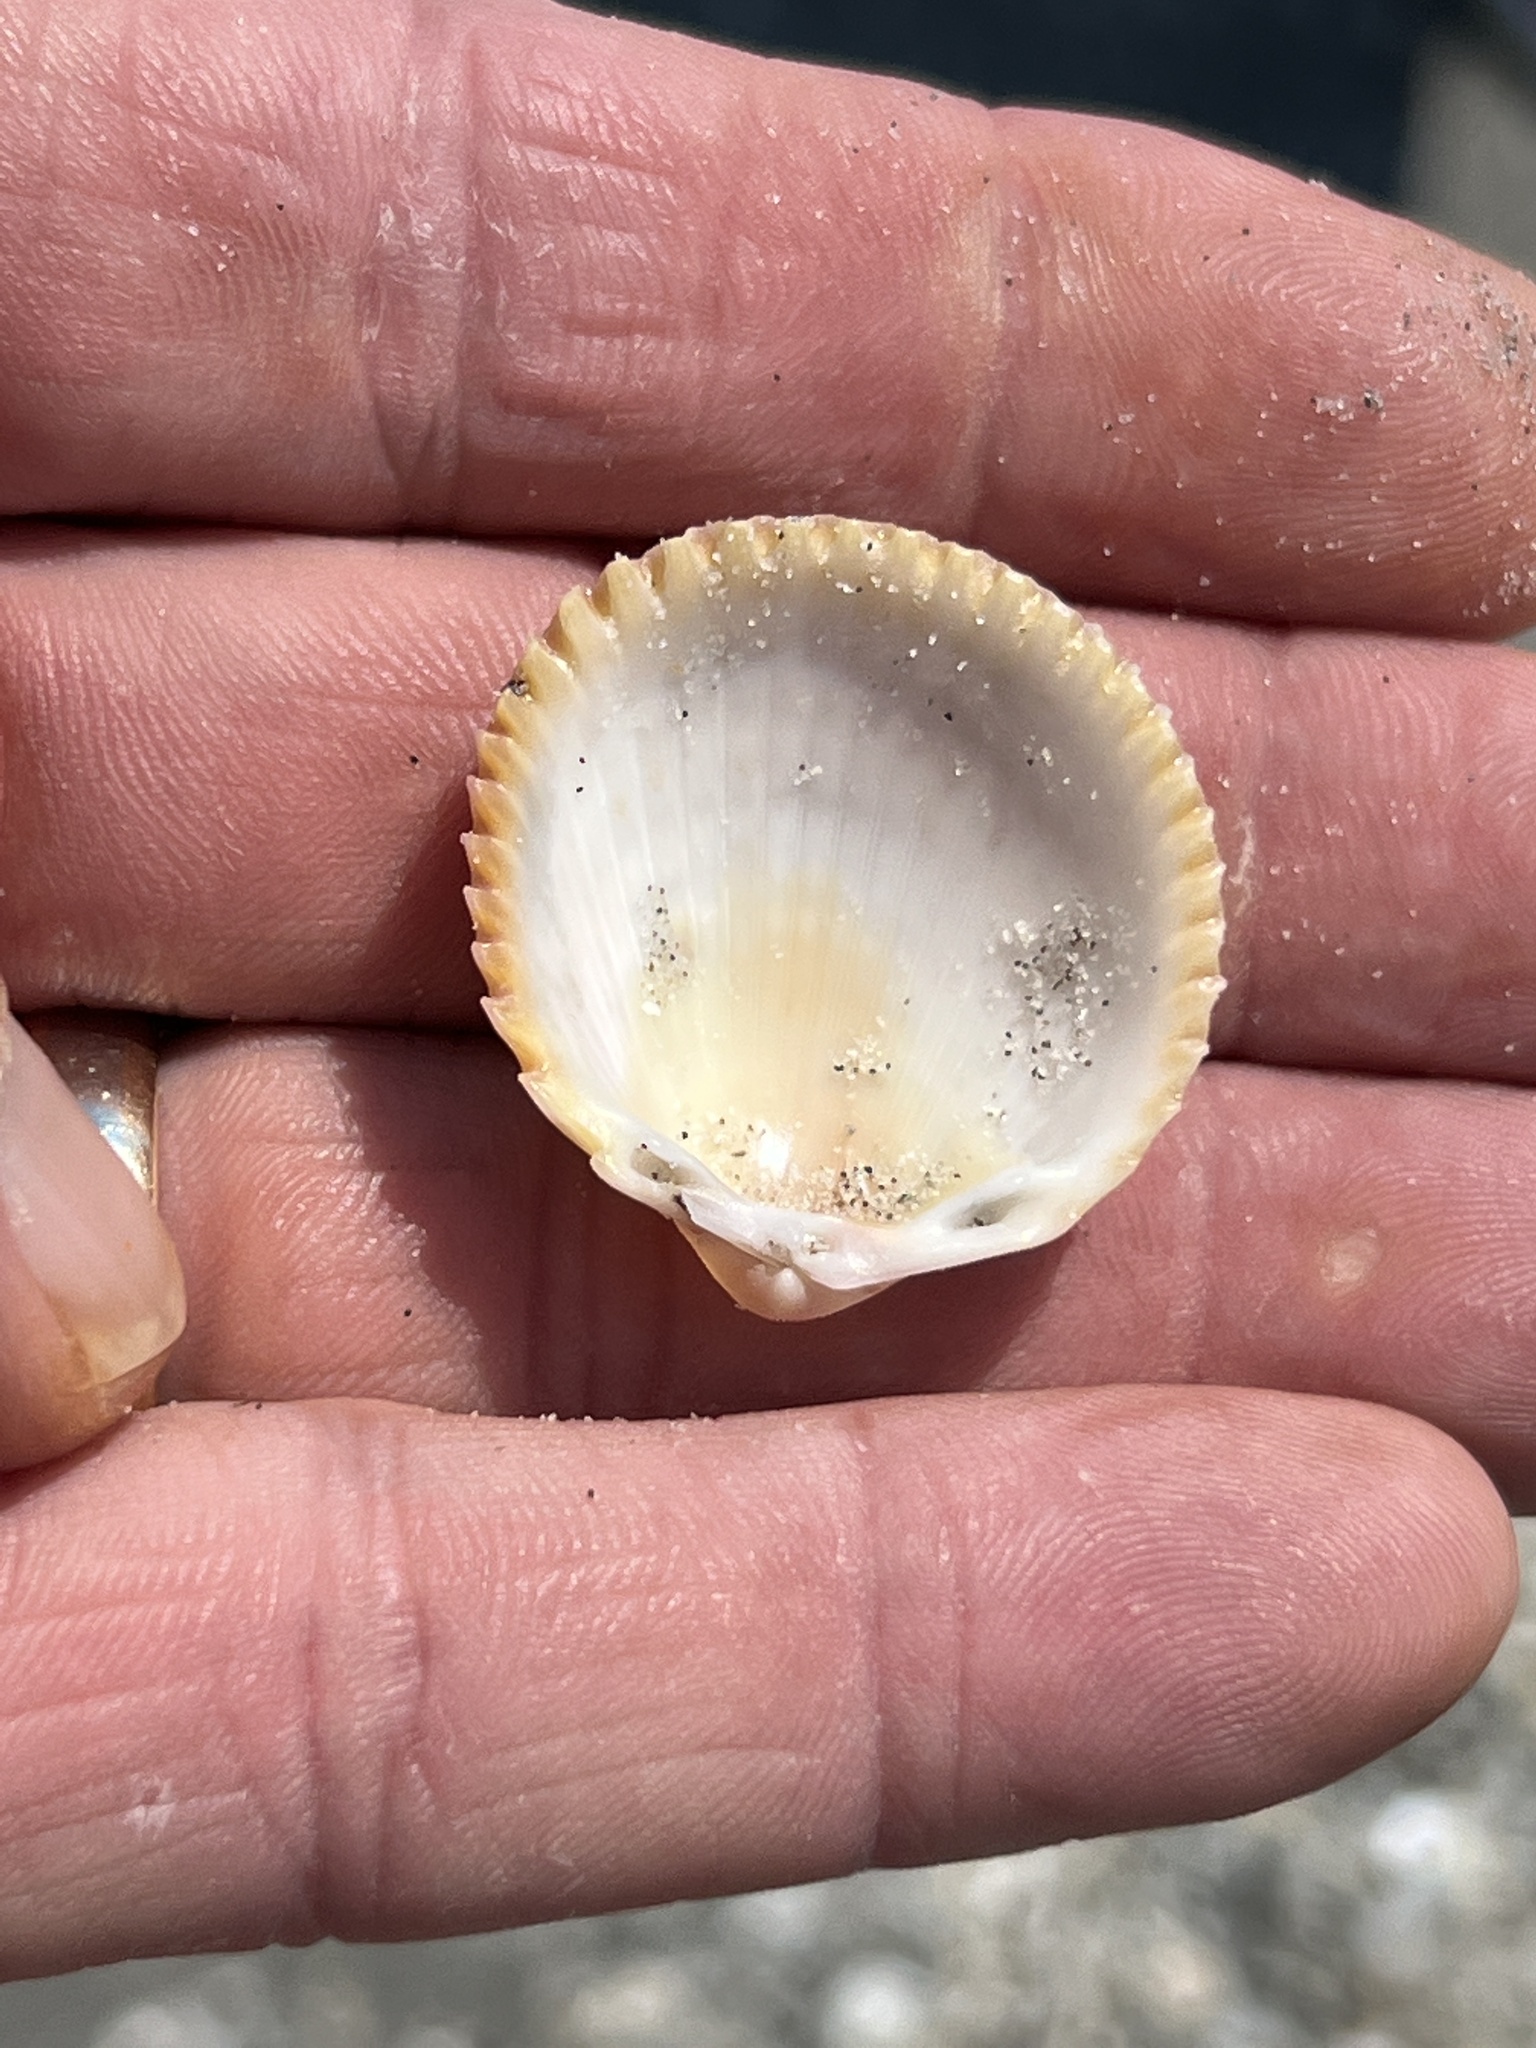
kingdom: Animalia
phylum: Mollusca
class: Bivalvia
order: Cardiida
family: Cardiidae
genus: Dallocardia
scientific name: Dallocardia muricata
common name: Yellow pricklycockle
